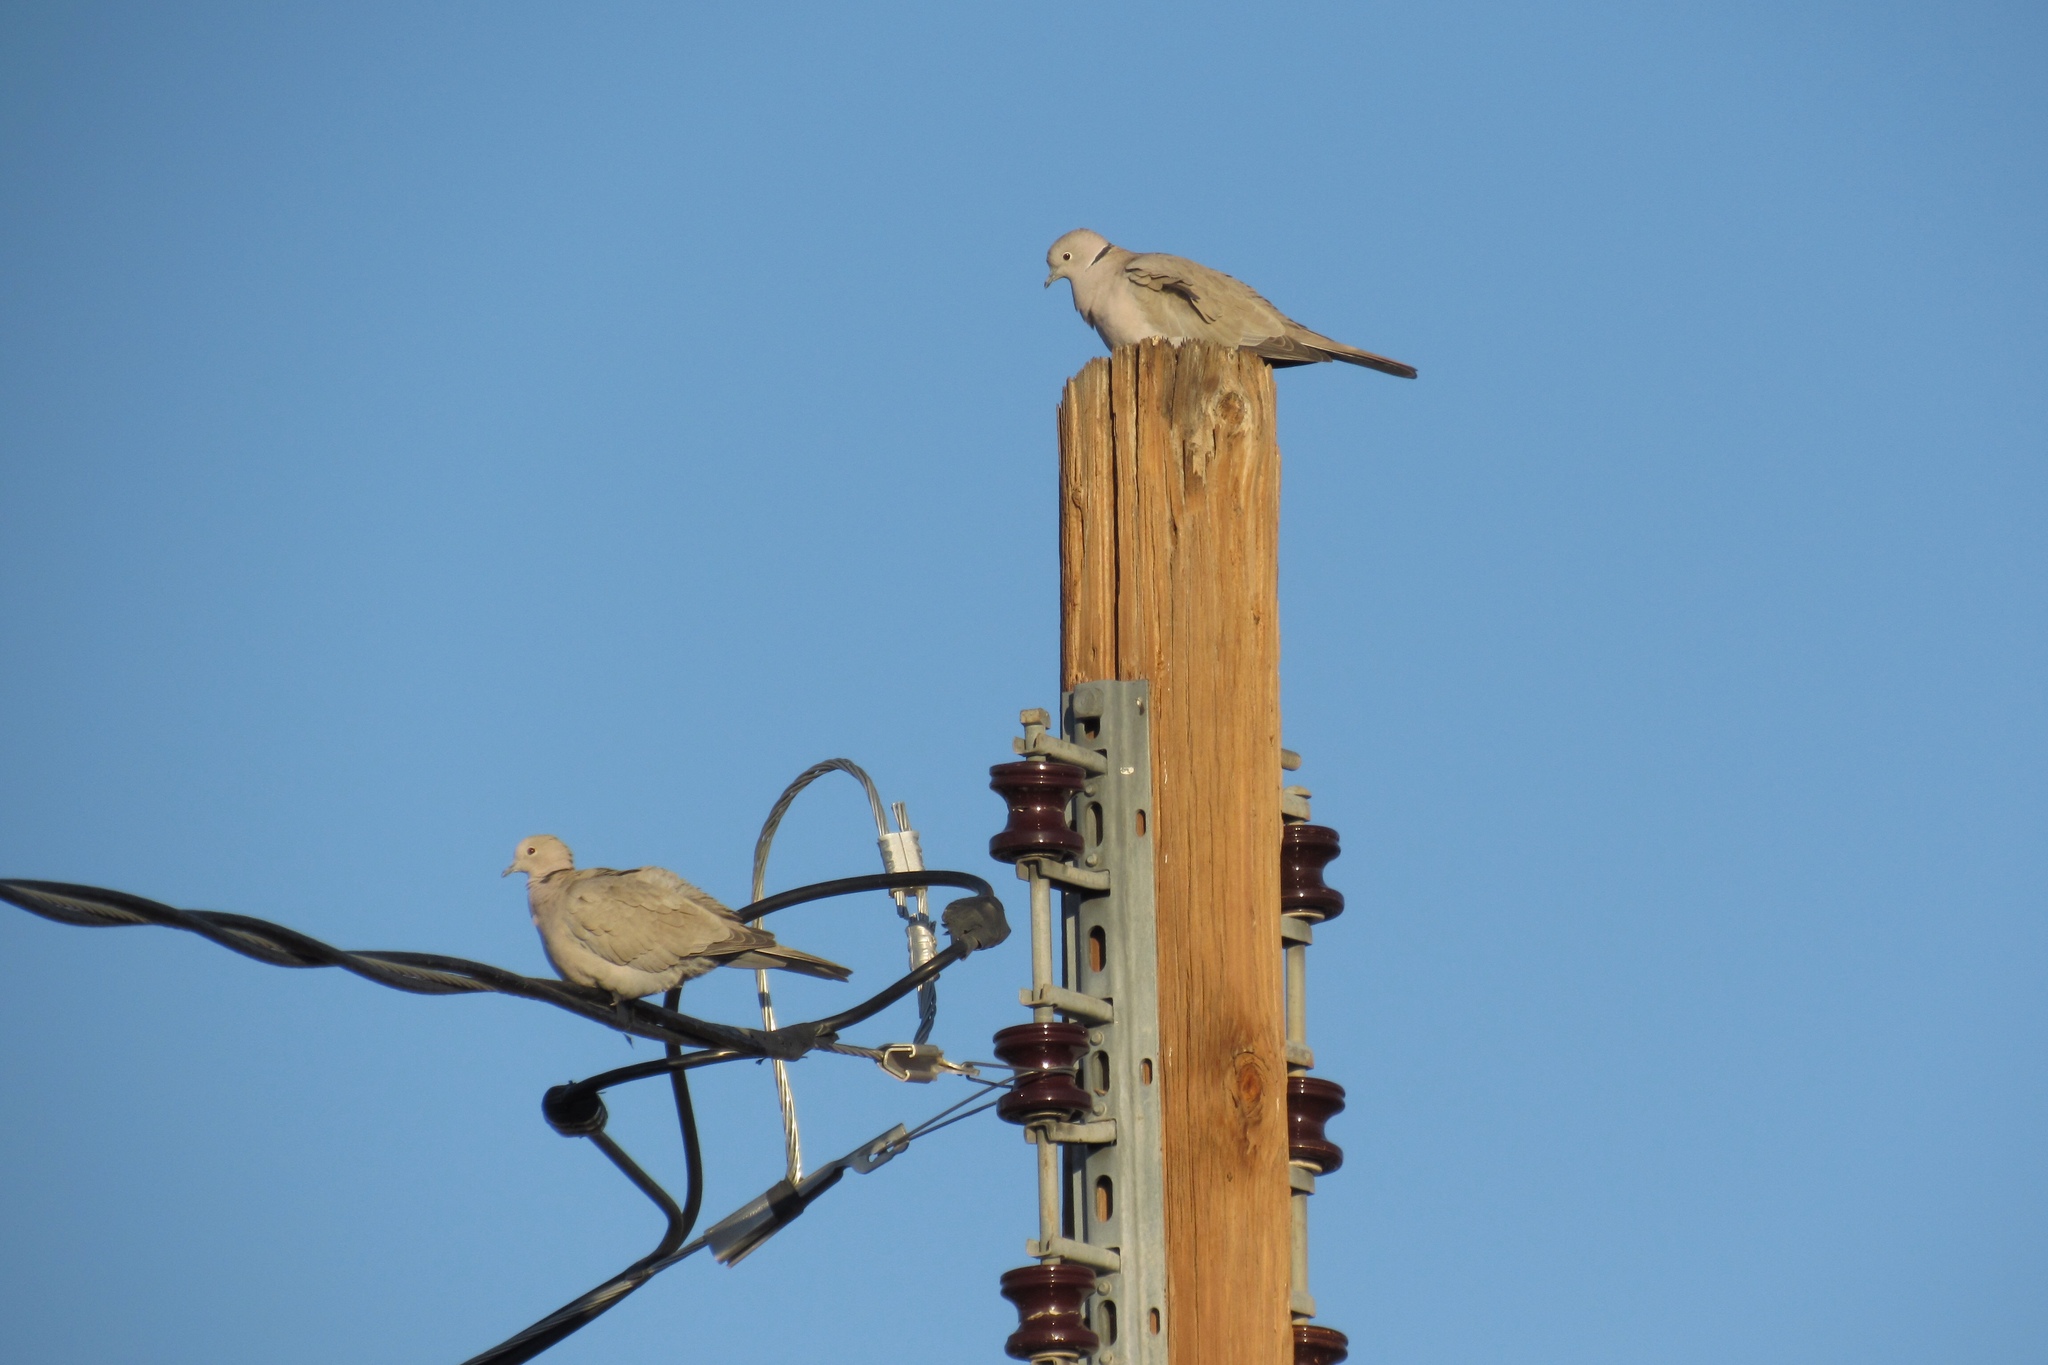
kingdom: Animalia
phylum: Chordata
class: Aves
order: Columbiformes
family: Columbidae
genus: Streptopelia
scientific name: Streptopelia decaocto
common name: Eurasian collared dove
